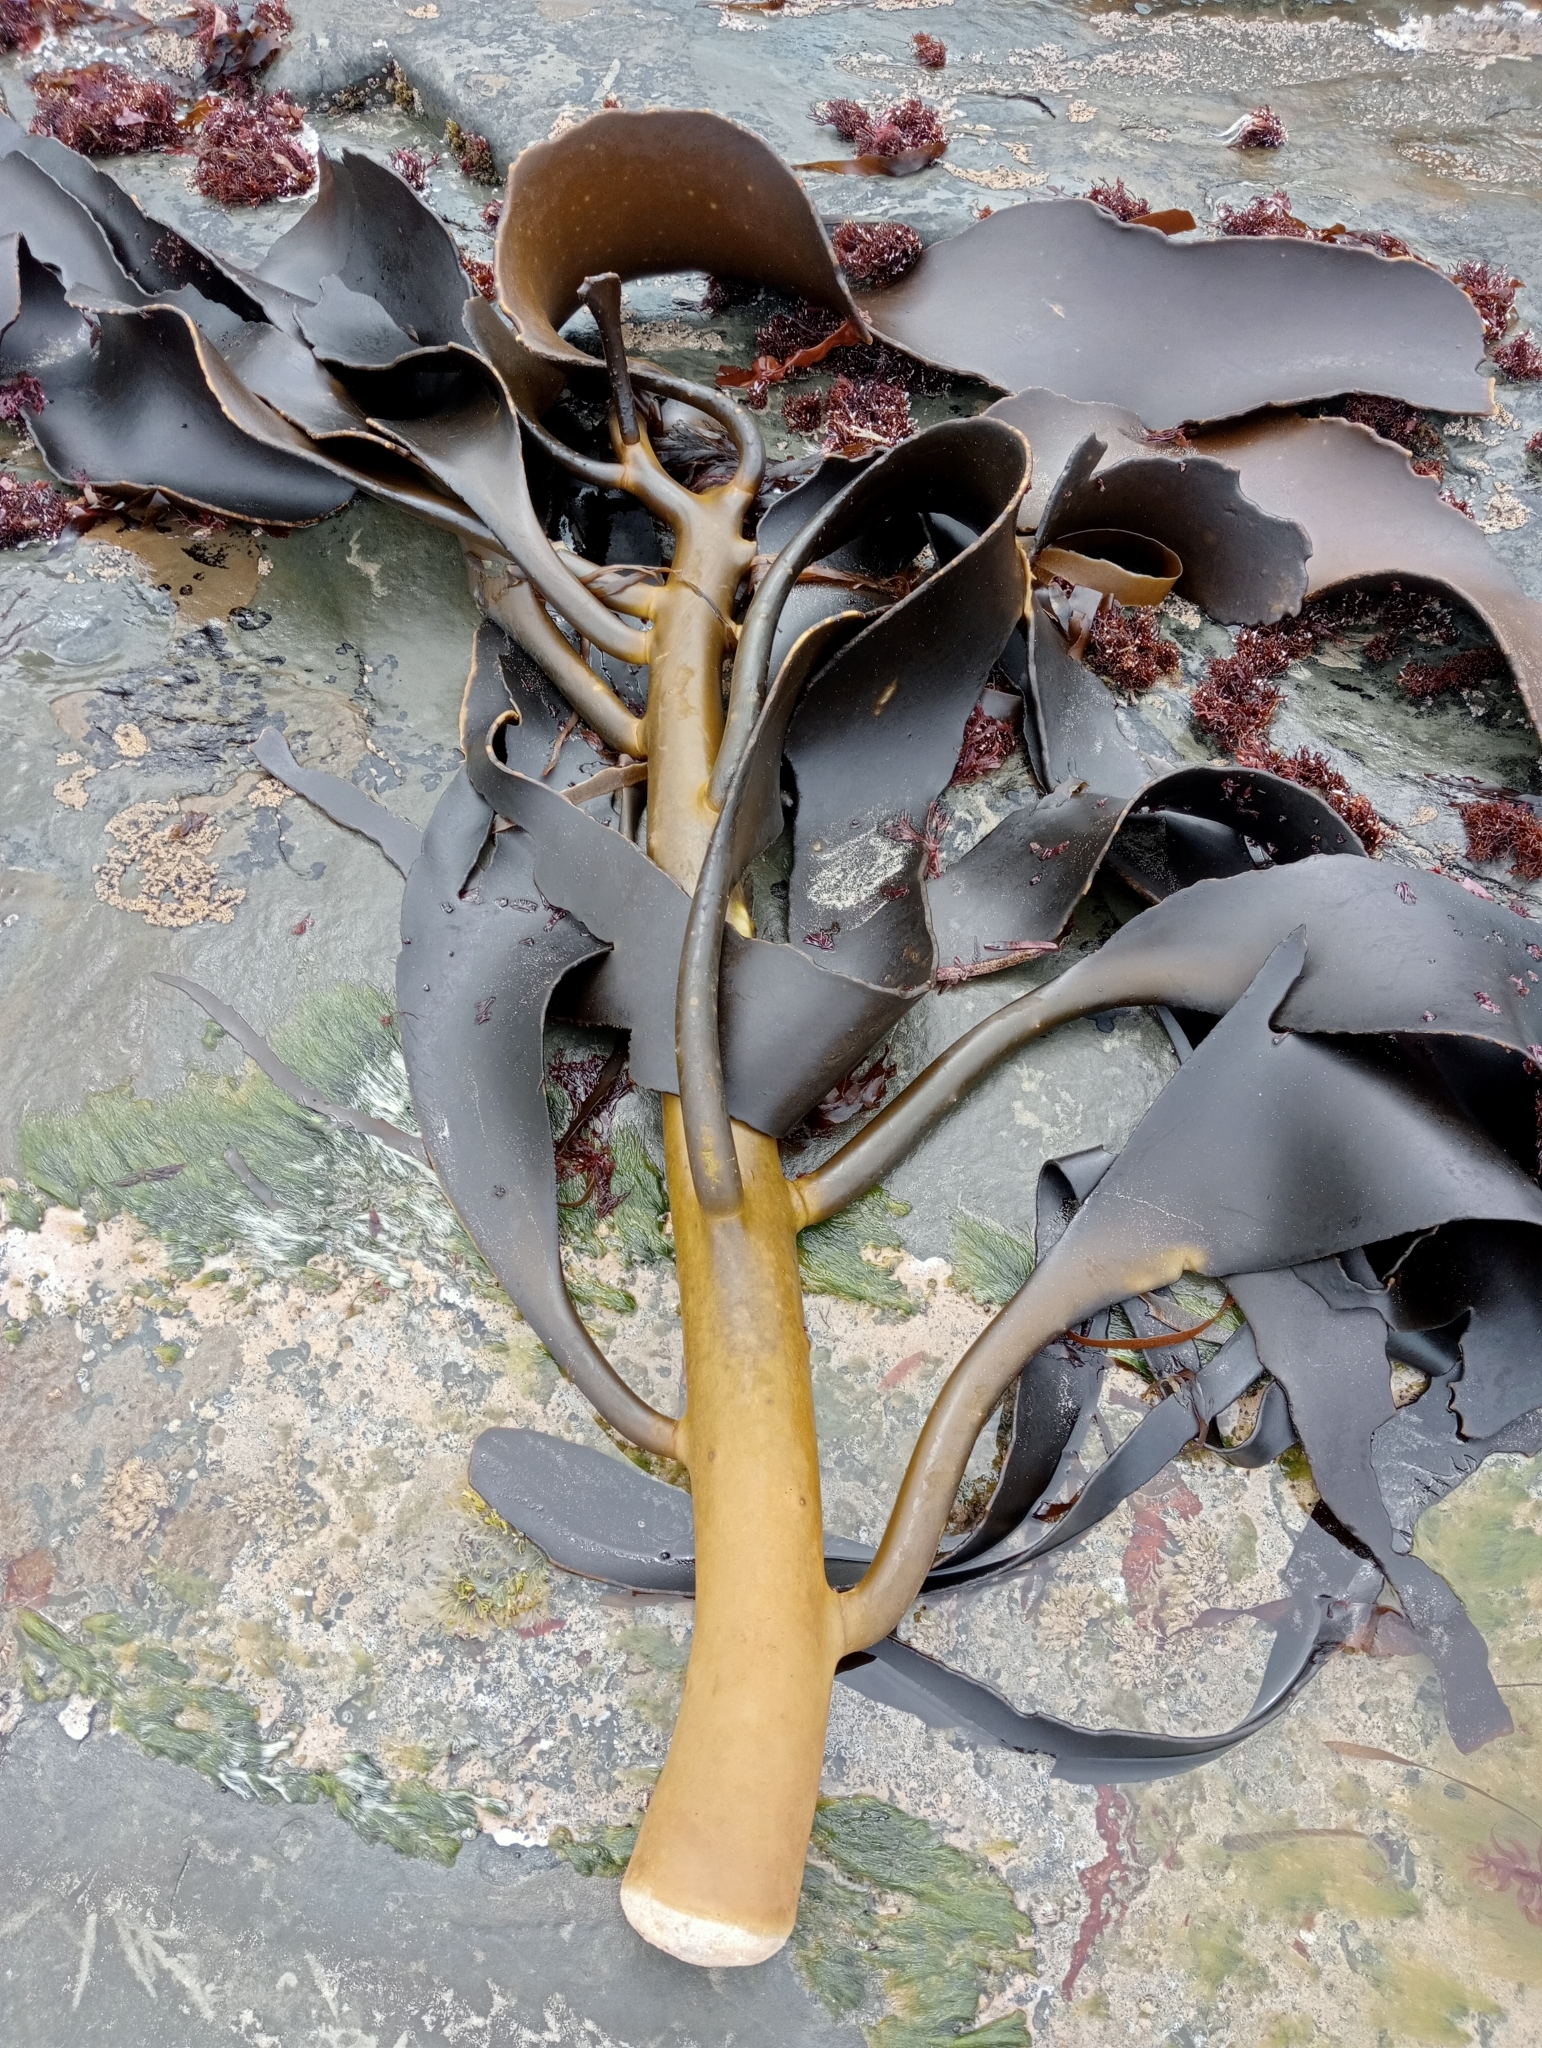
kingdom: Chromista
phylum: Ochrophyta
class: Phaeophyceae
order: Fucales
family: Durvillaeaceae
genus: Durvillaea
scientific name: Durvillaea willana
